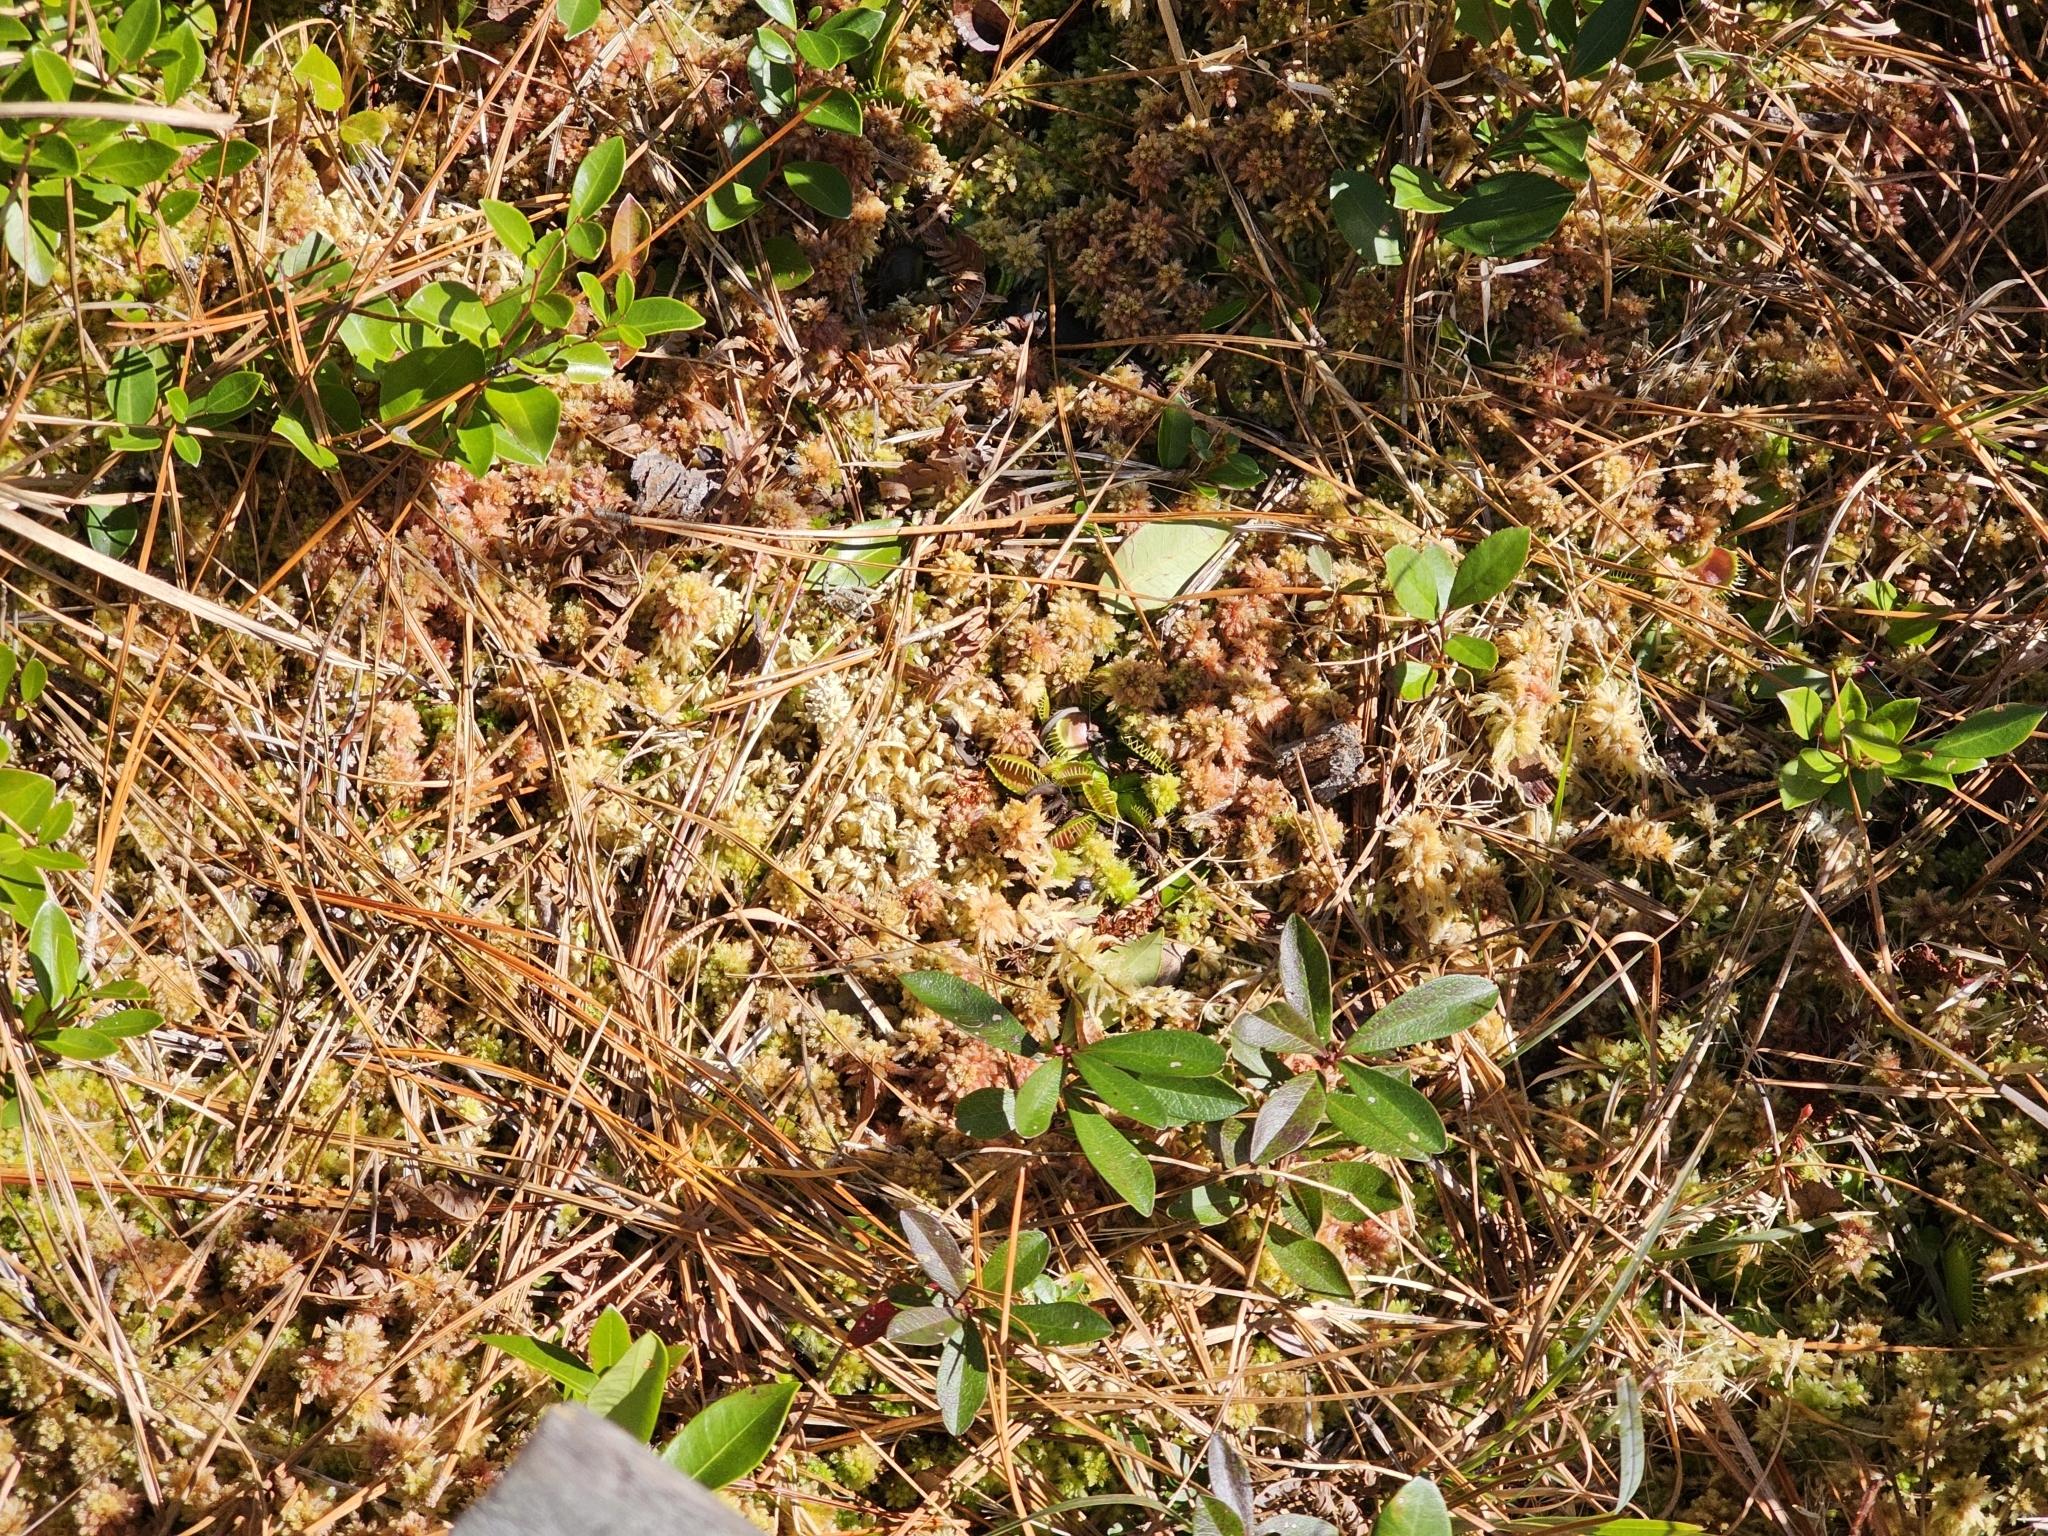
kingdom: Plantae
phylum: Tracheophyta
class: Magnoliopsida
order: Caryophyllales
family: Droseraceae
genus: Dionaea
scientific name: Dionaea muscipula
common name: Venus flytrap
